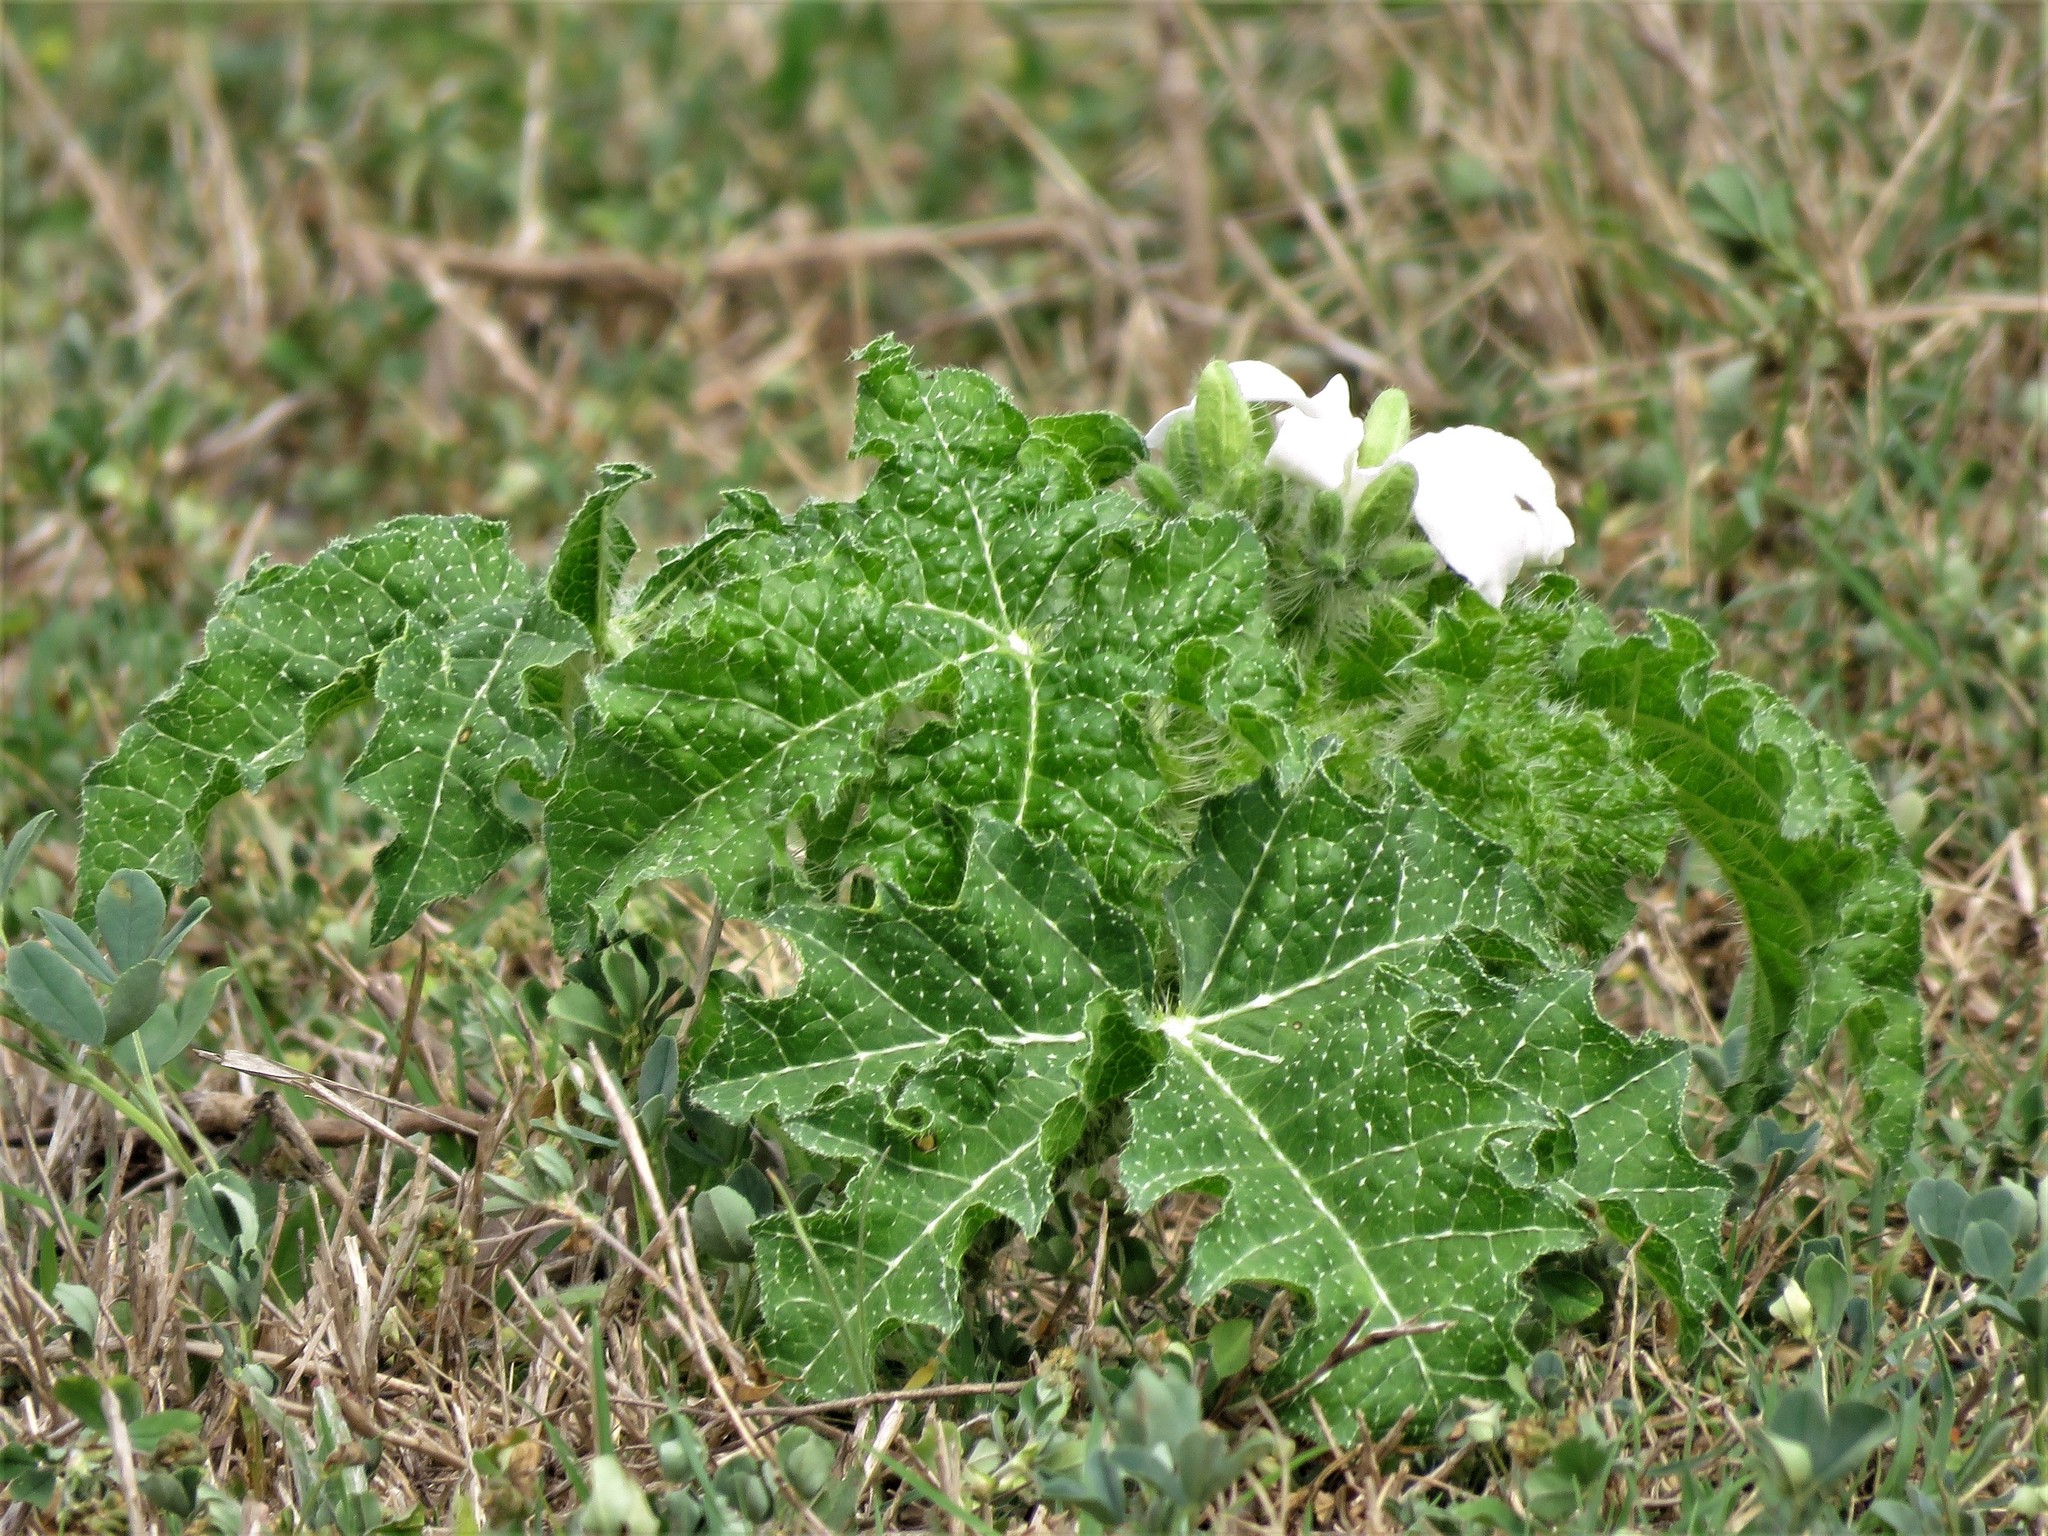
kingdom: Plantae
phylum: Tracheophyta
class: Magnoliopsida
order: Malpighiales
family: Euphorbiaceae
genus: Cnidoscolus
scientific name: Cnidoscolus texanus
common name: Texas bull-nettle
